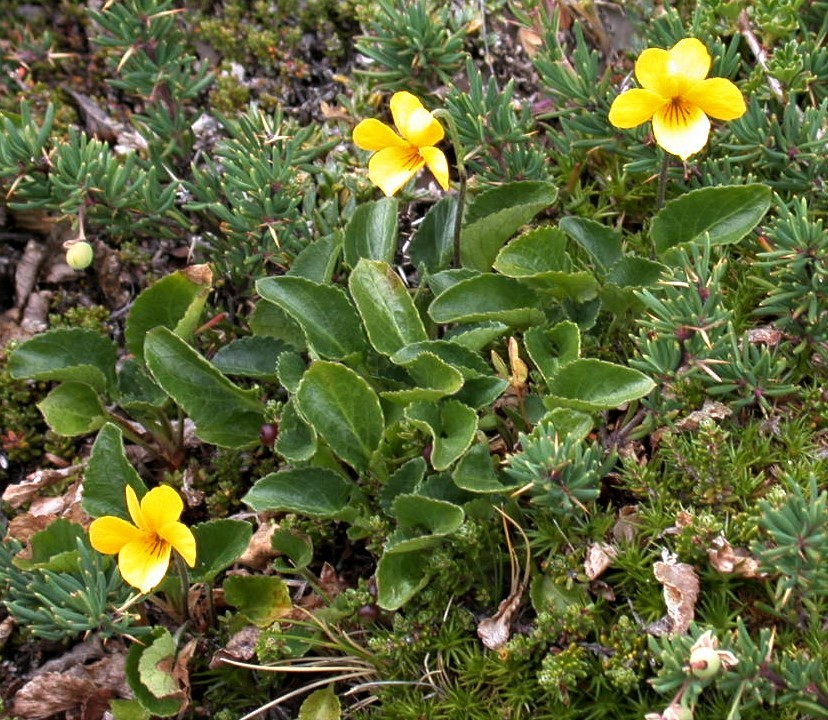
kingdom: Plantae
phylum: Tracheophyta
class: Magnoliopsida
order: Malpighiales
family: Violaceae
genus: Viola
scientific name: Viola maculata
